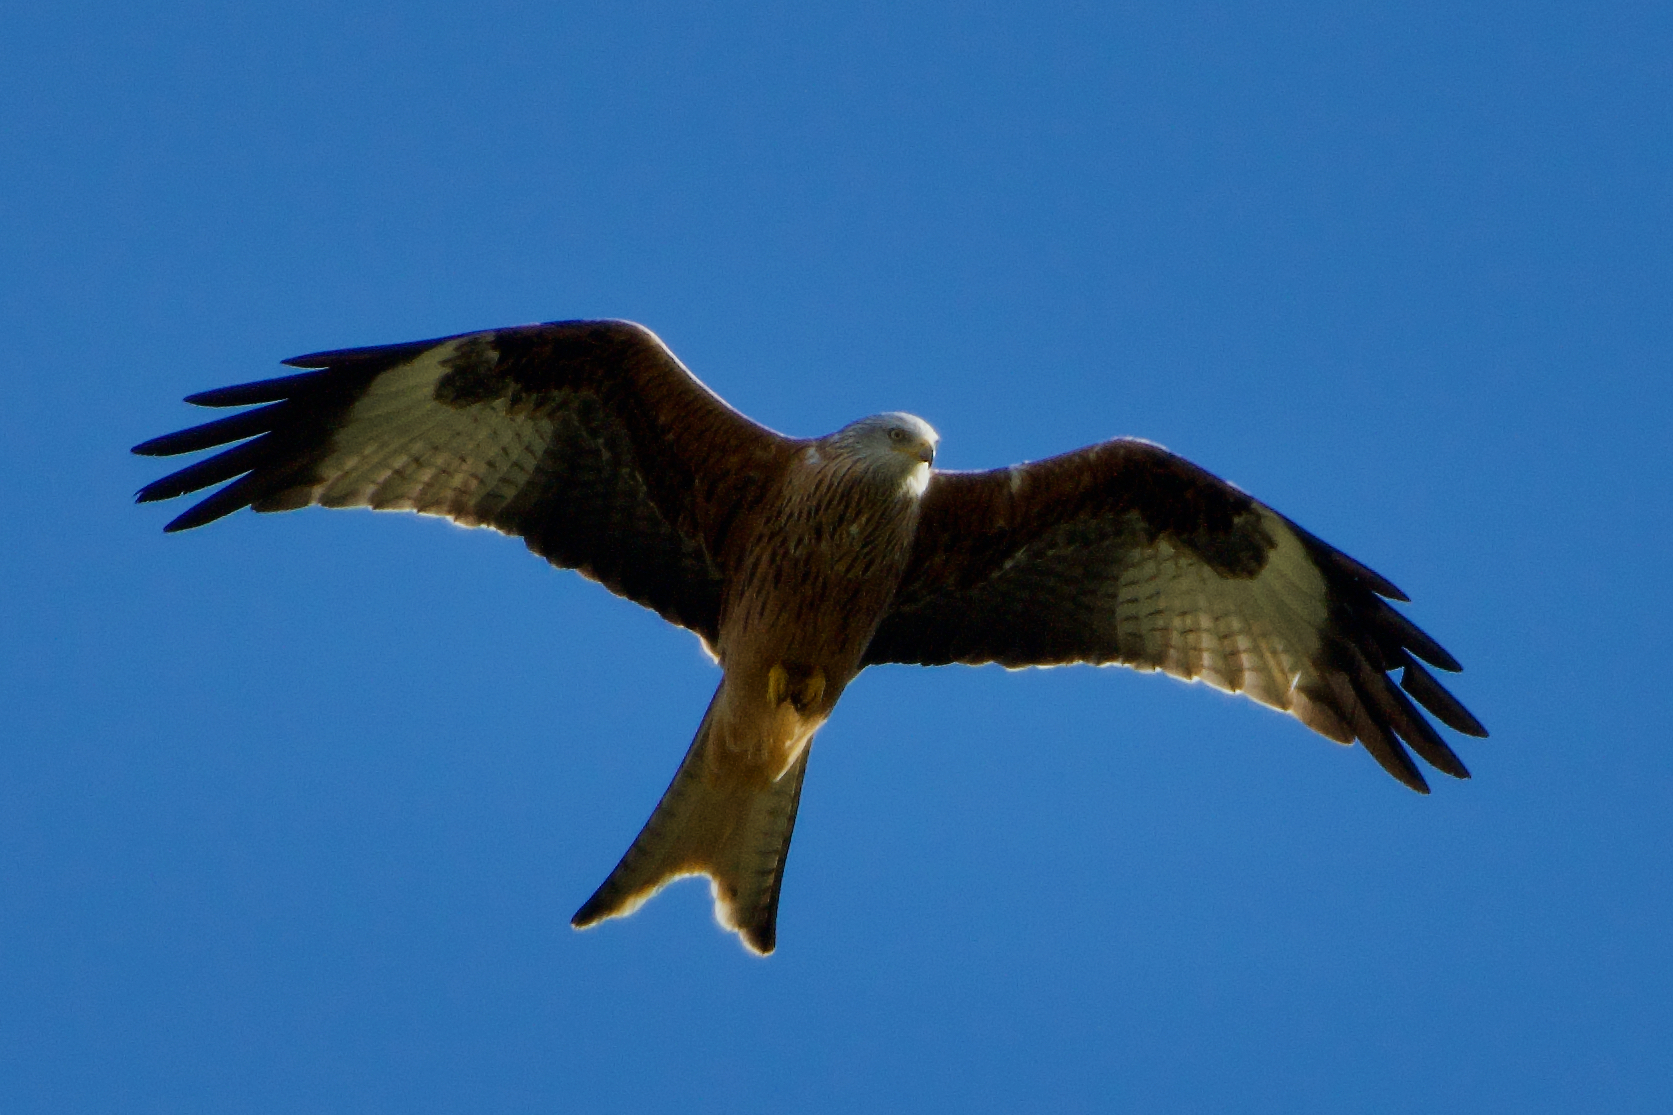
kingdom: Animalia
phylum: Chordata
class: Aves
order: Accipitriformes
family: Accipitridae
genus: Milvus
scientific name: Milvus milvus
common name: Red kite
